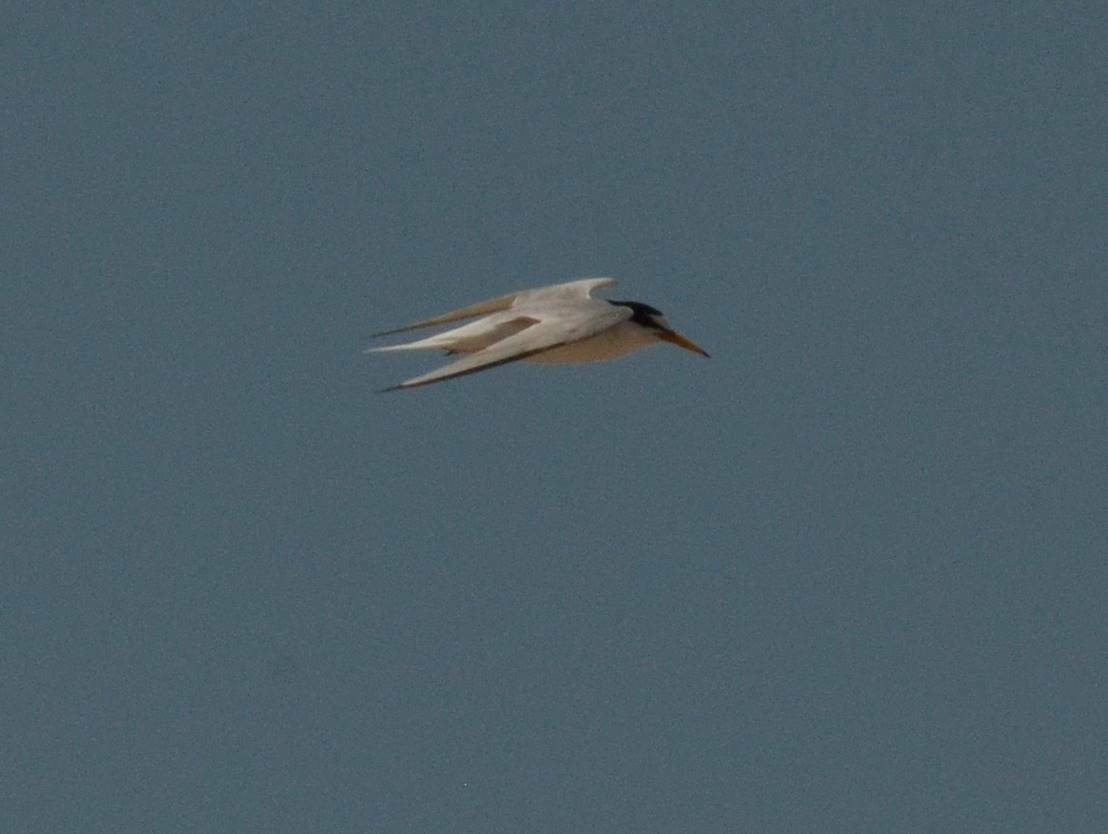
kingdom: Animalia
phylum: Chordata
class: Aves
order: Charadriiformes
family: Laridae
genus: Sternula
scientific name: Sternula albifrons
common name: Little tern
